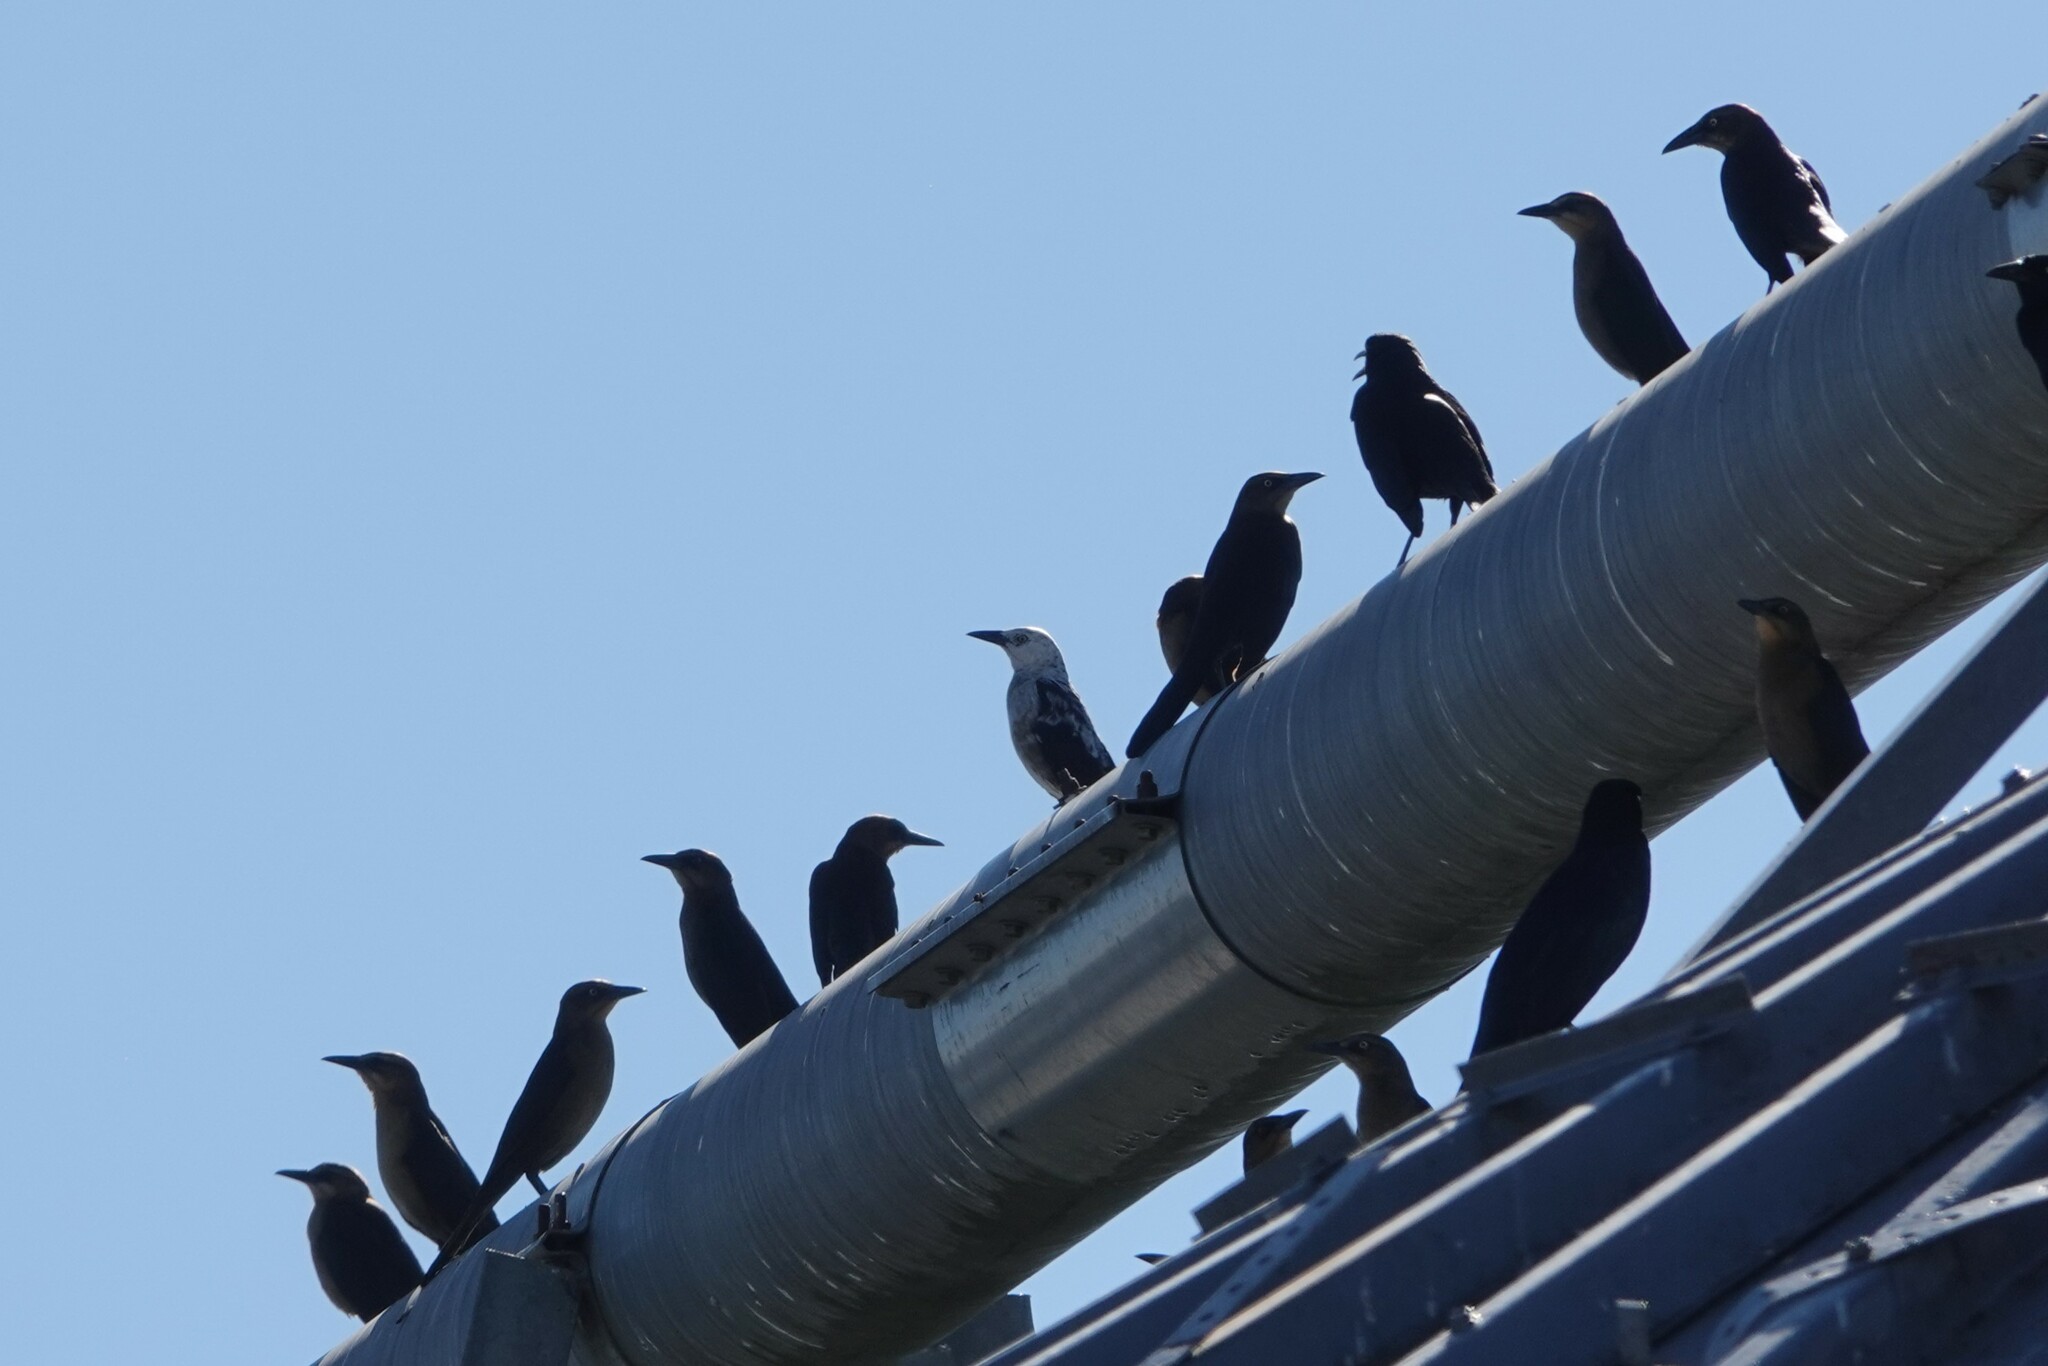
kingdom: Animalia
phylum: Chordata
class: Aves
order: Passeriformes
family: Icteridae
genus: Quiscalus
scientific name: Quiscalus mexicanus
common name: Great-tailed grackle
